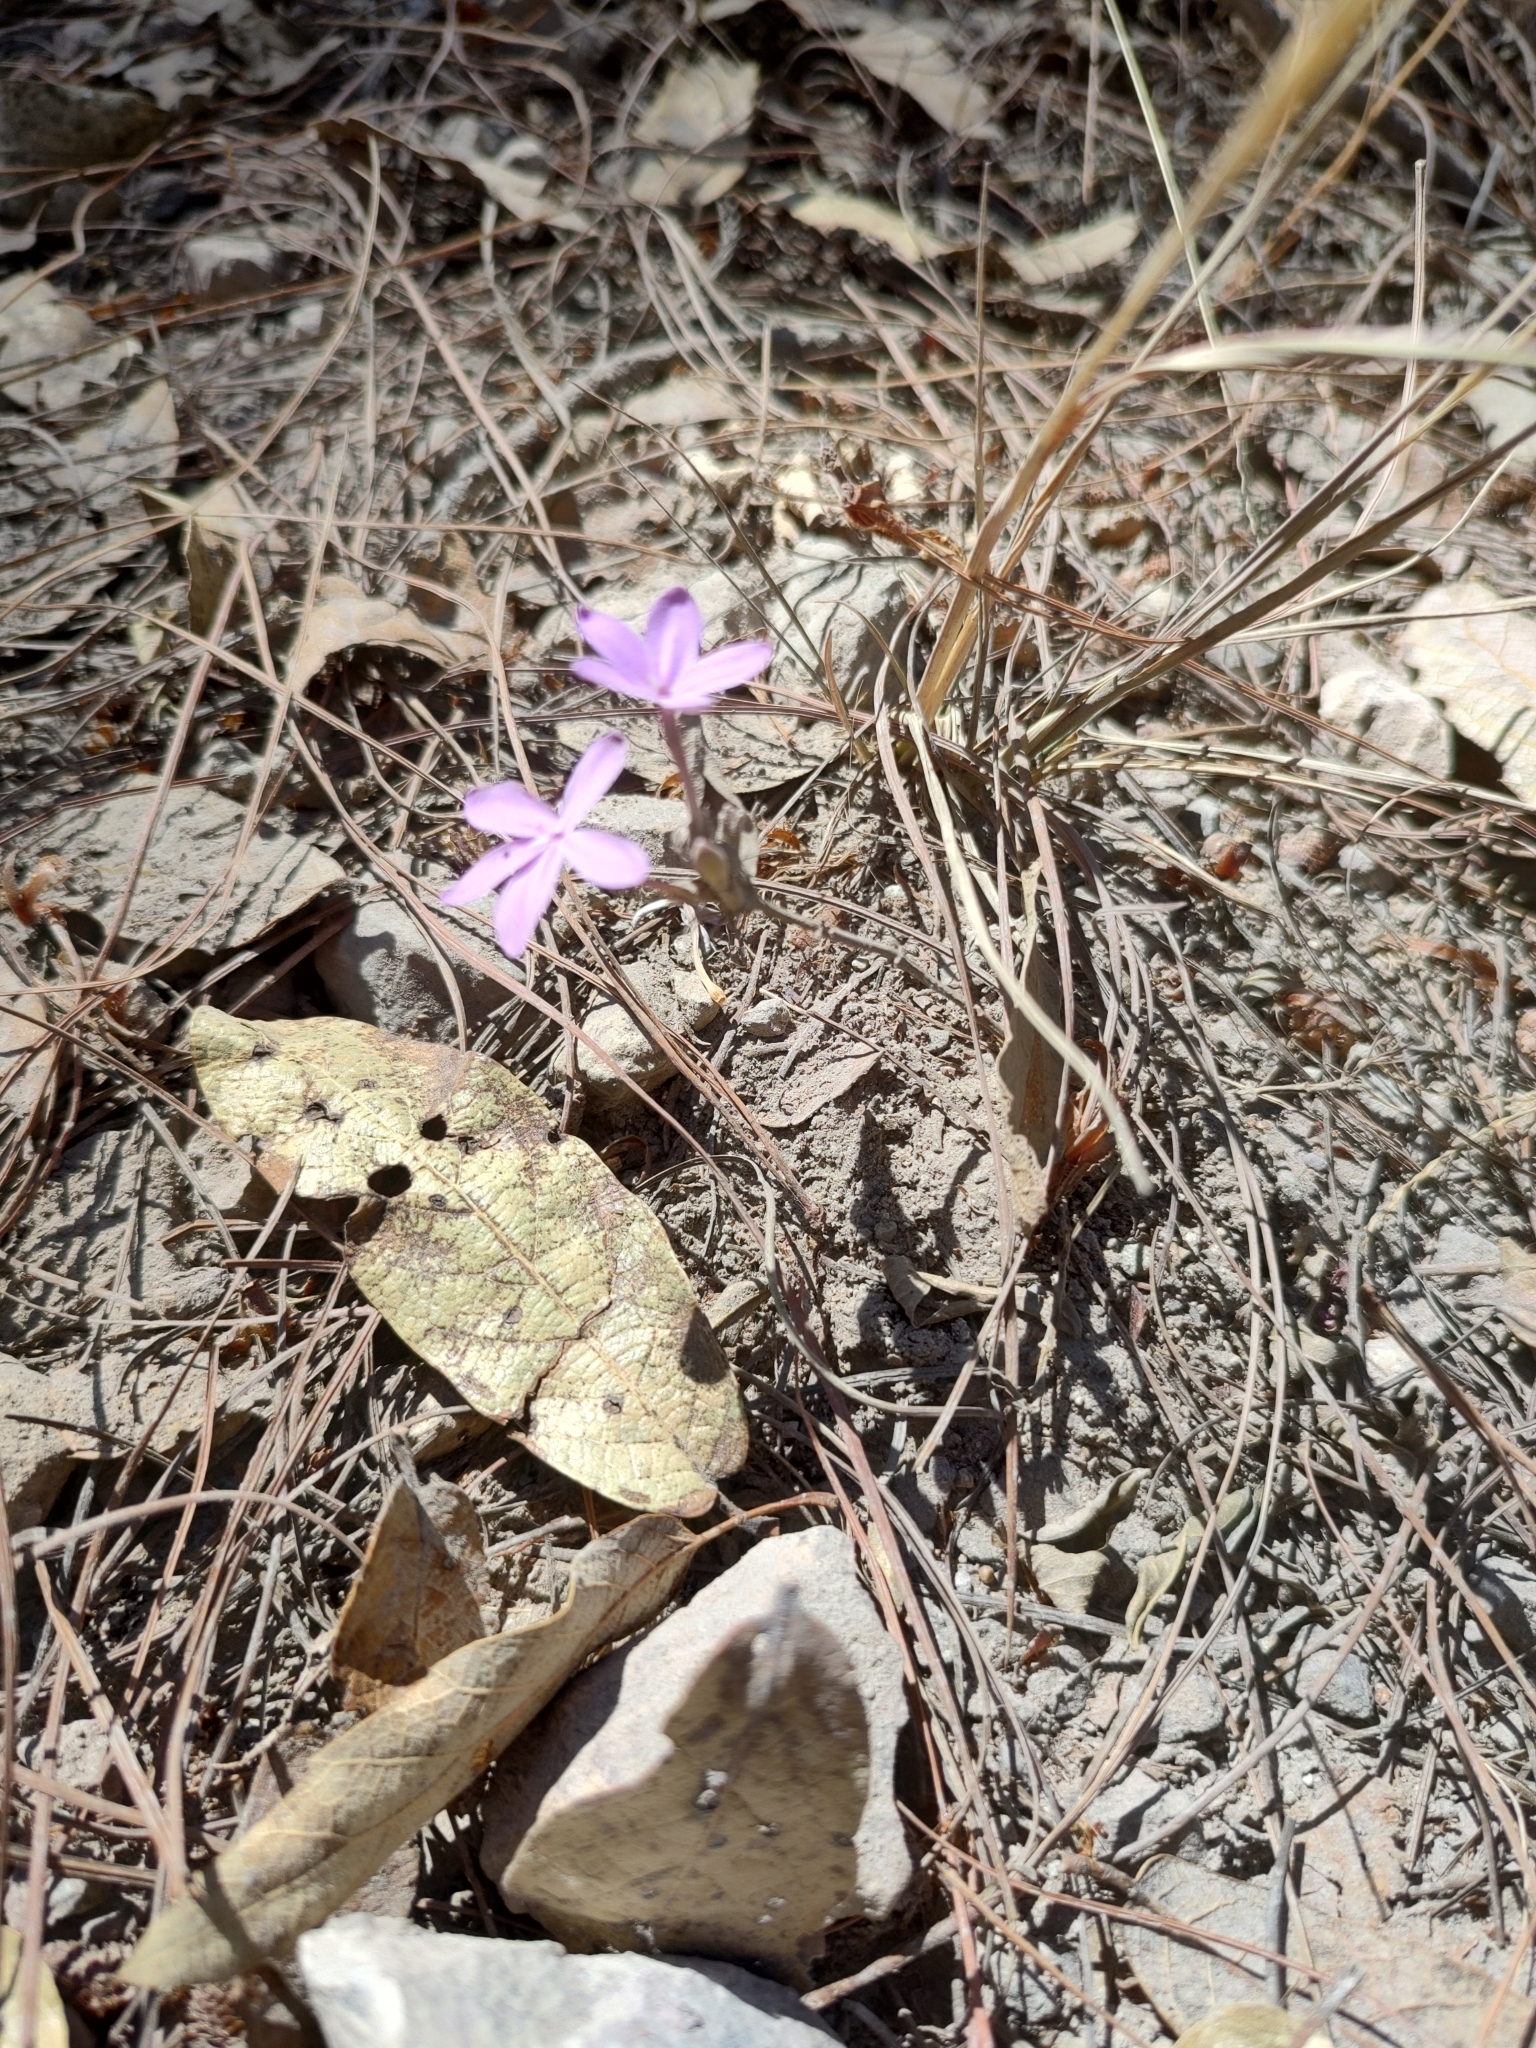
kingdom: Plantae
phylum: Tracheophyta
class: Magnoliopsida
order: Lamiales
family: Acanthaceae
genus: Pseuderanthemum
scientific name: Pseuderanthemum praecox
